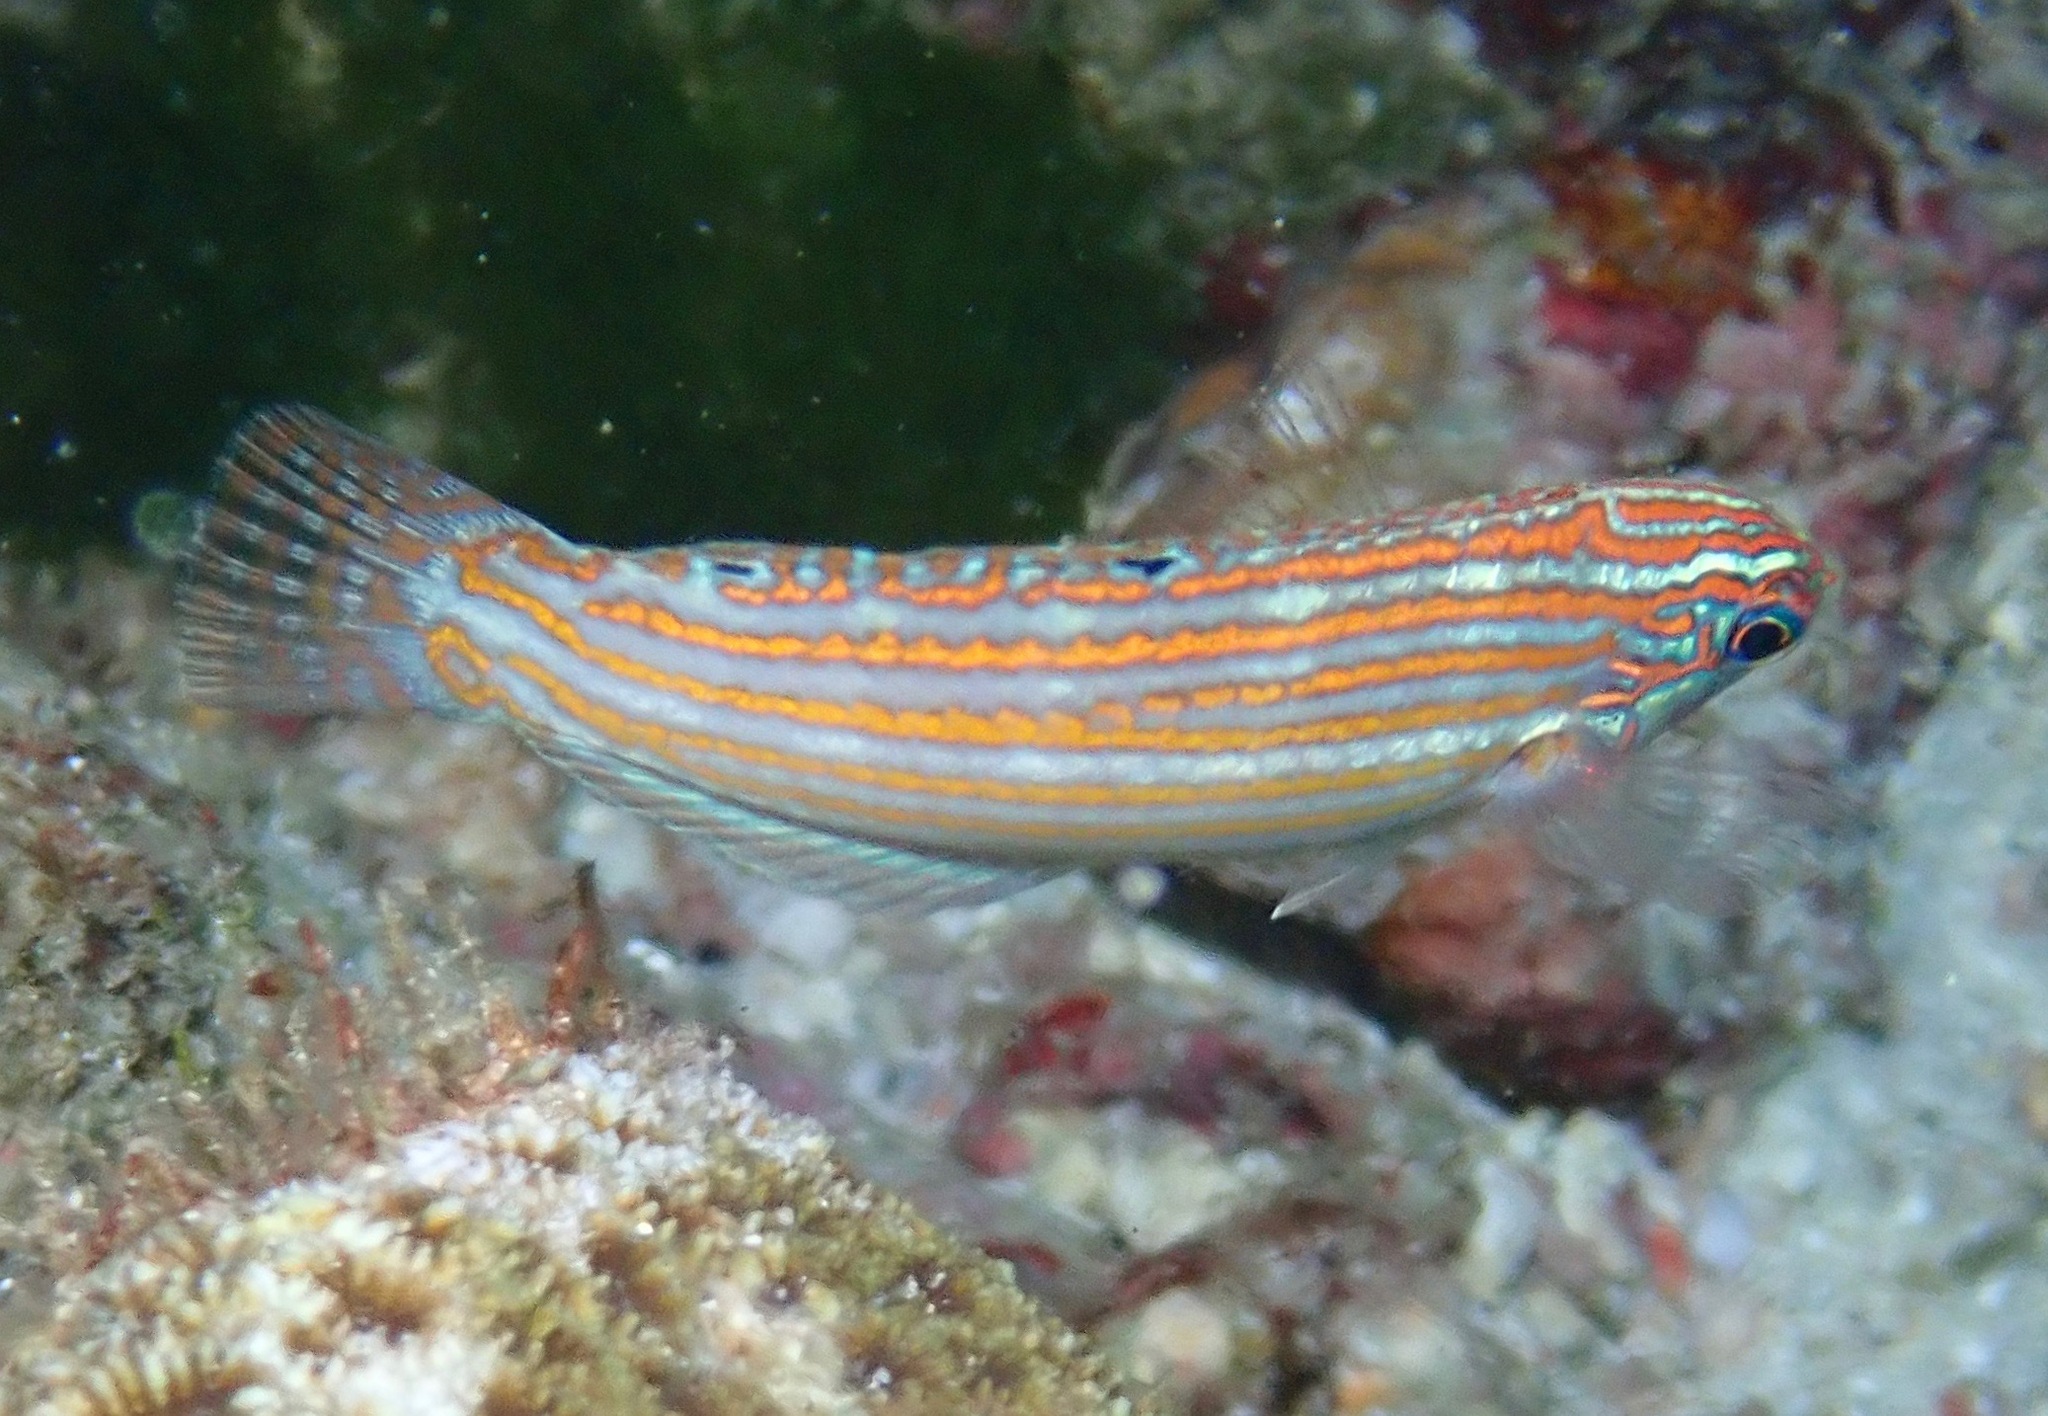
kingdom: Animalia
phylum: Chordata
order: Perciformes
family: Labridae
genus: Halichoeres
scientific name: Halichoeres cosmetus
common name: Adorned wrasse
